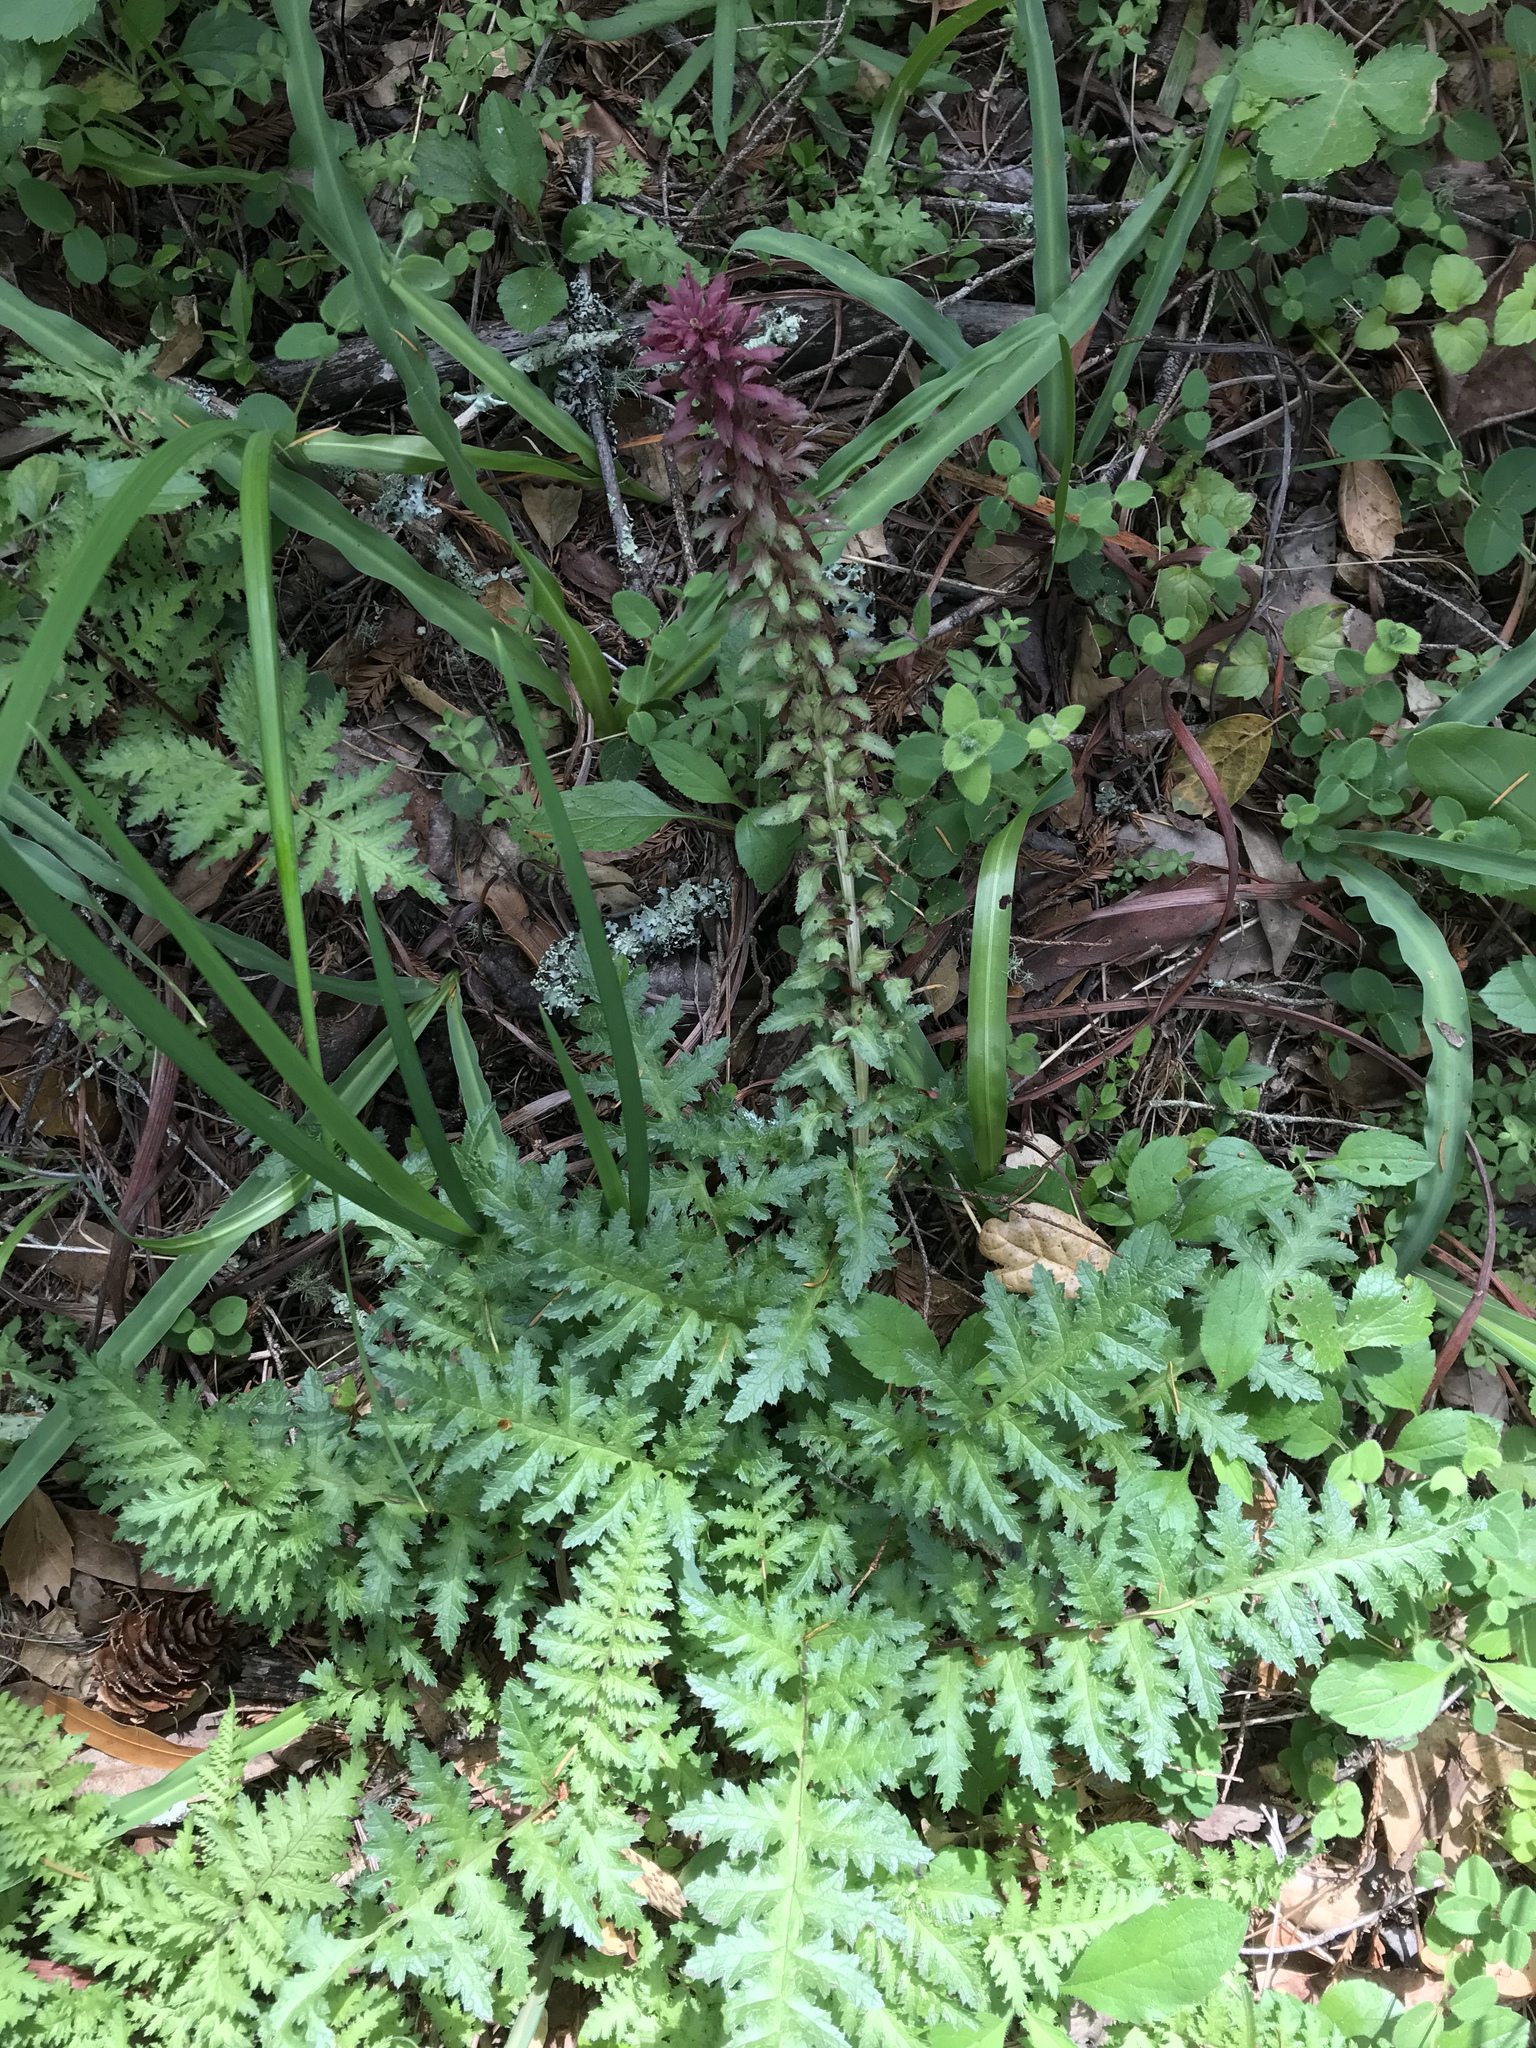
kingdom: Plantae
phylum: Tracheophyta
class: Magnoliopsida
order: Lamiales
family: Orobanchaceae
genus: Pedicularis
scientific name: Pedicularis densiflora
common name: Indian warrior
